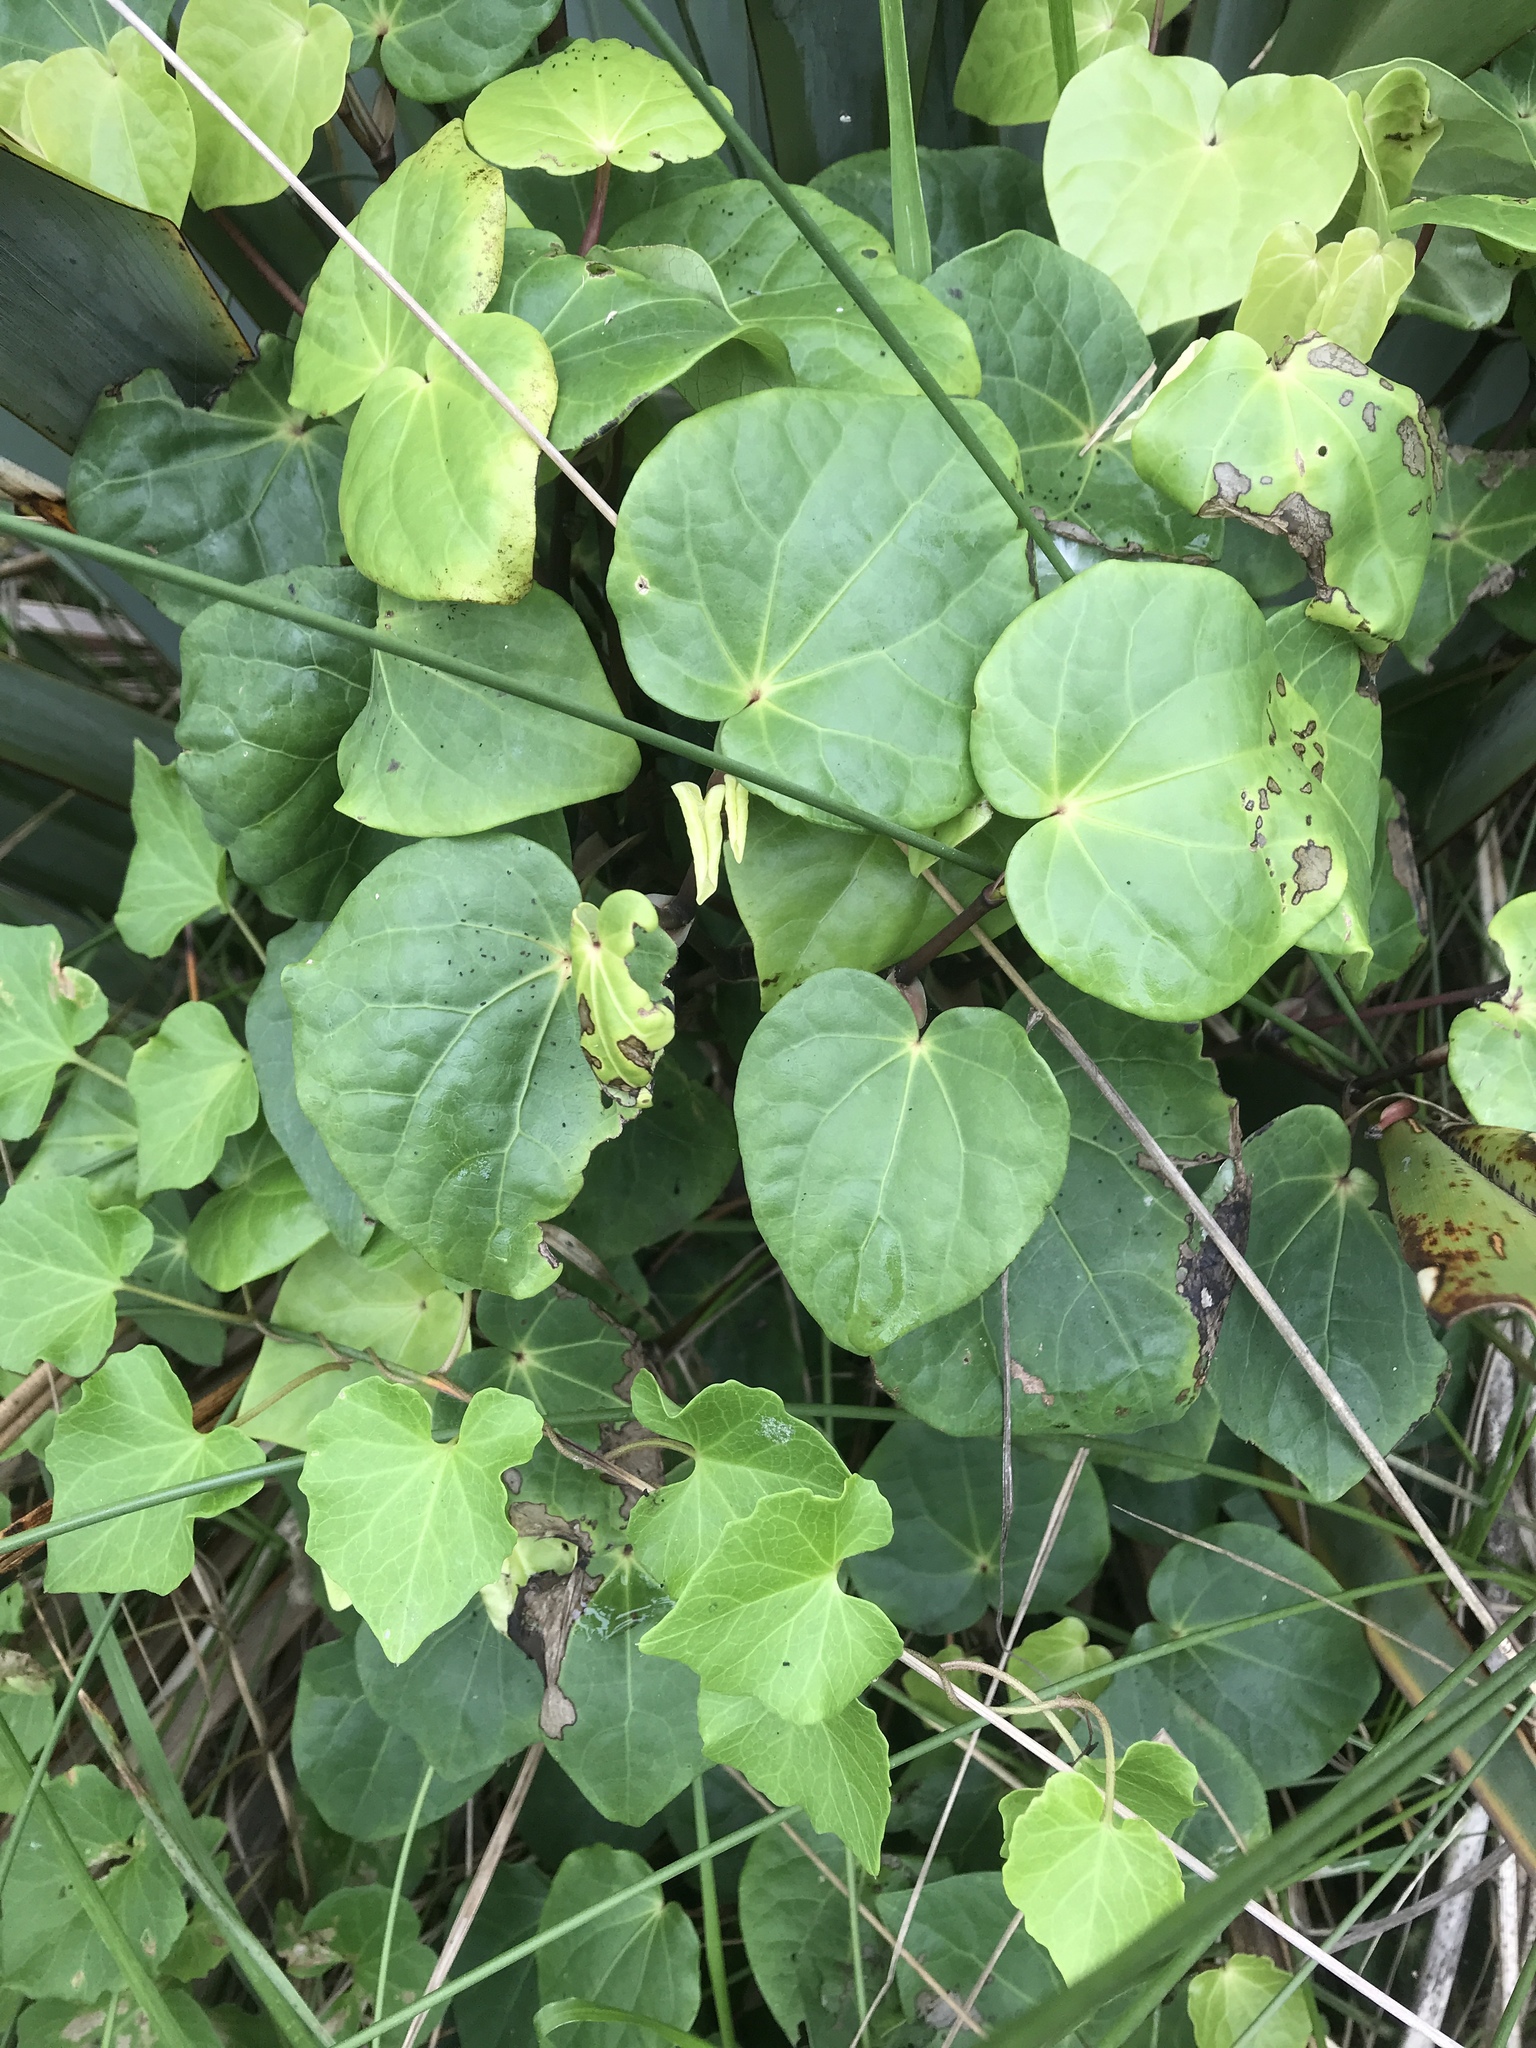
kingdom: Plantae
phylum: Tracheophyta
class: Magnoliopsida
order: Piperales
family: Piperaceae
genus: Macropiper
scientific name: Macropiper excelsum
